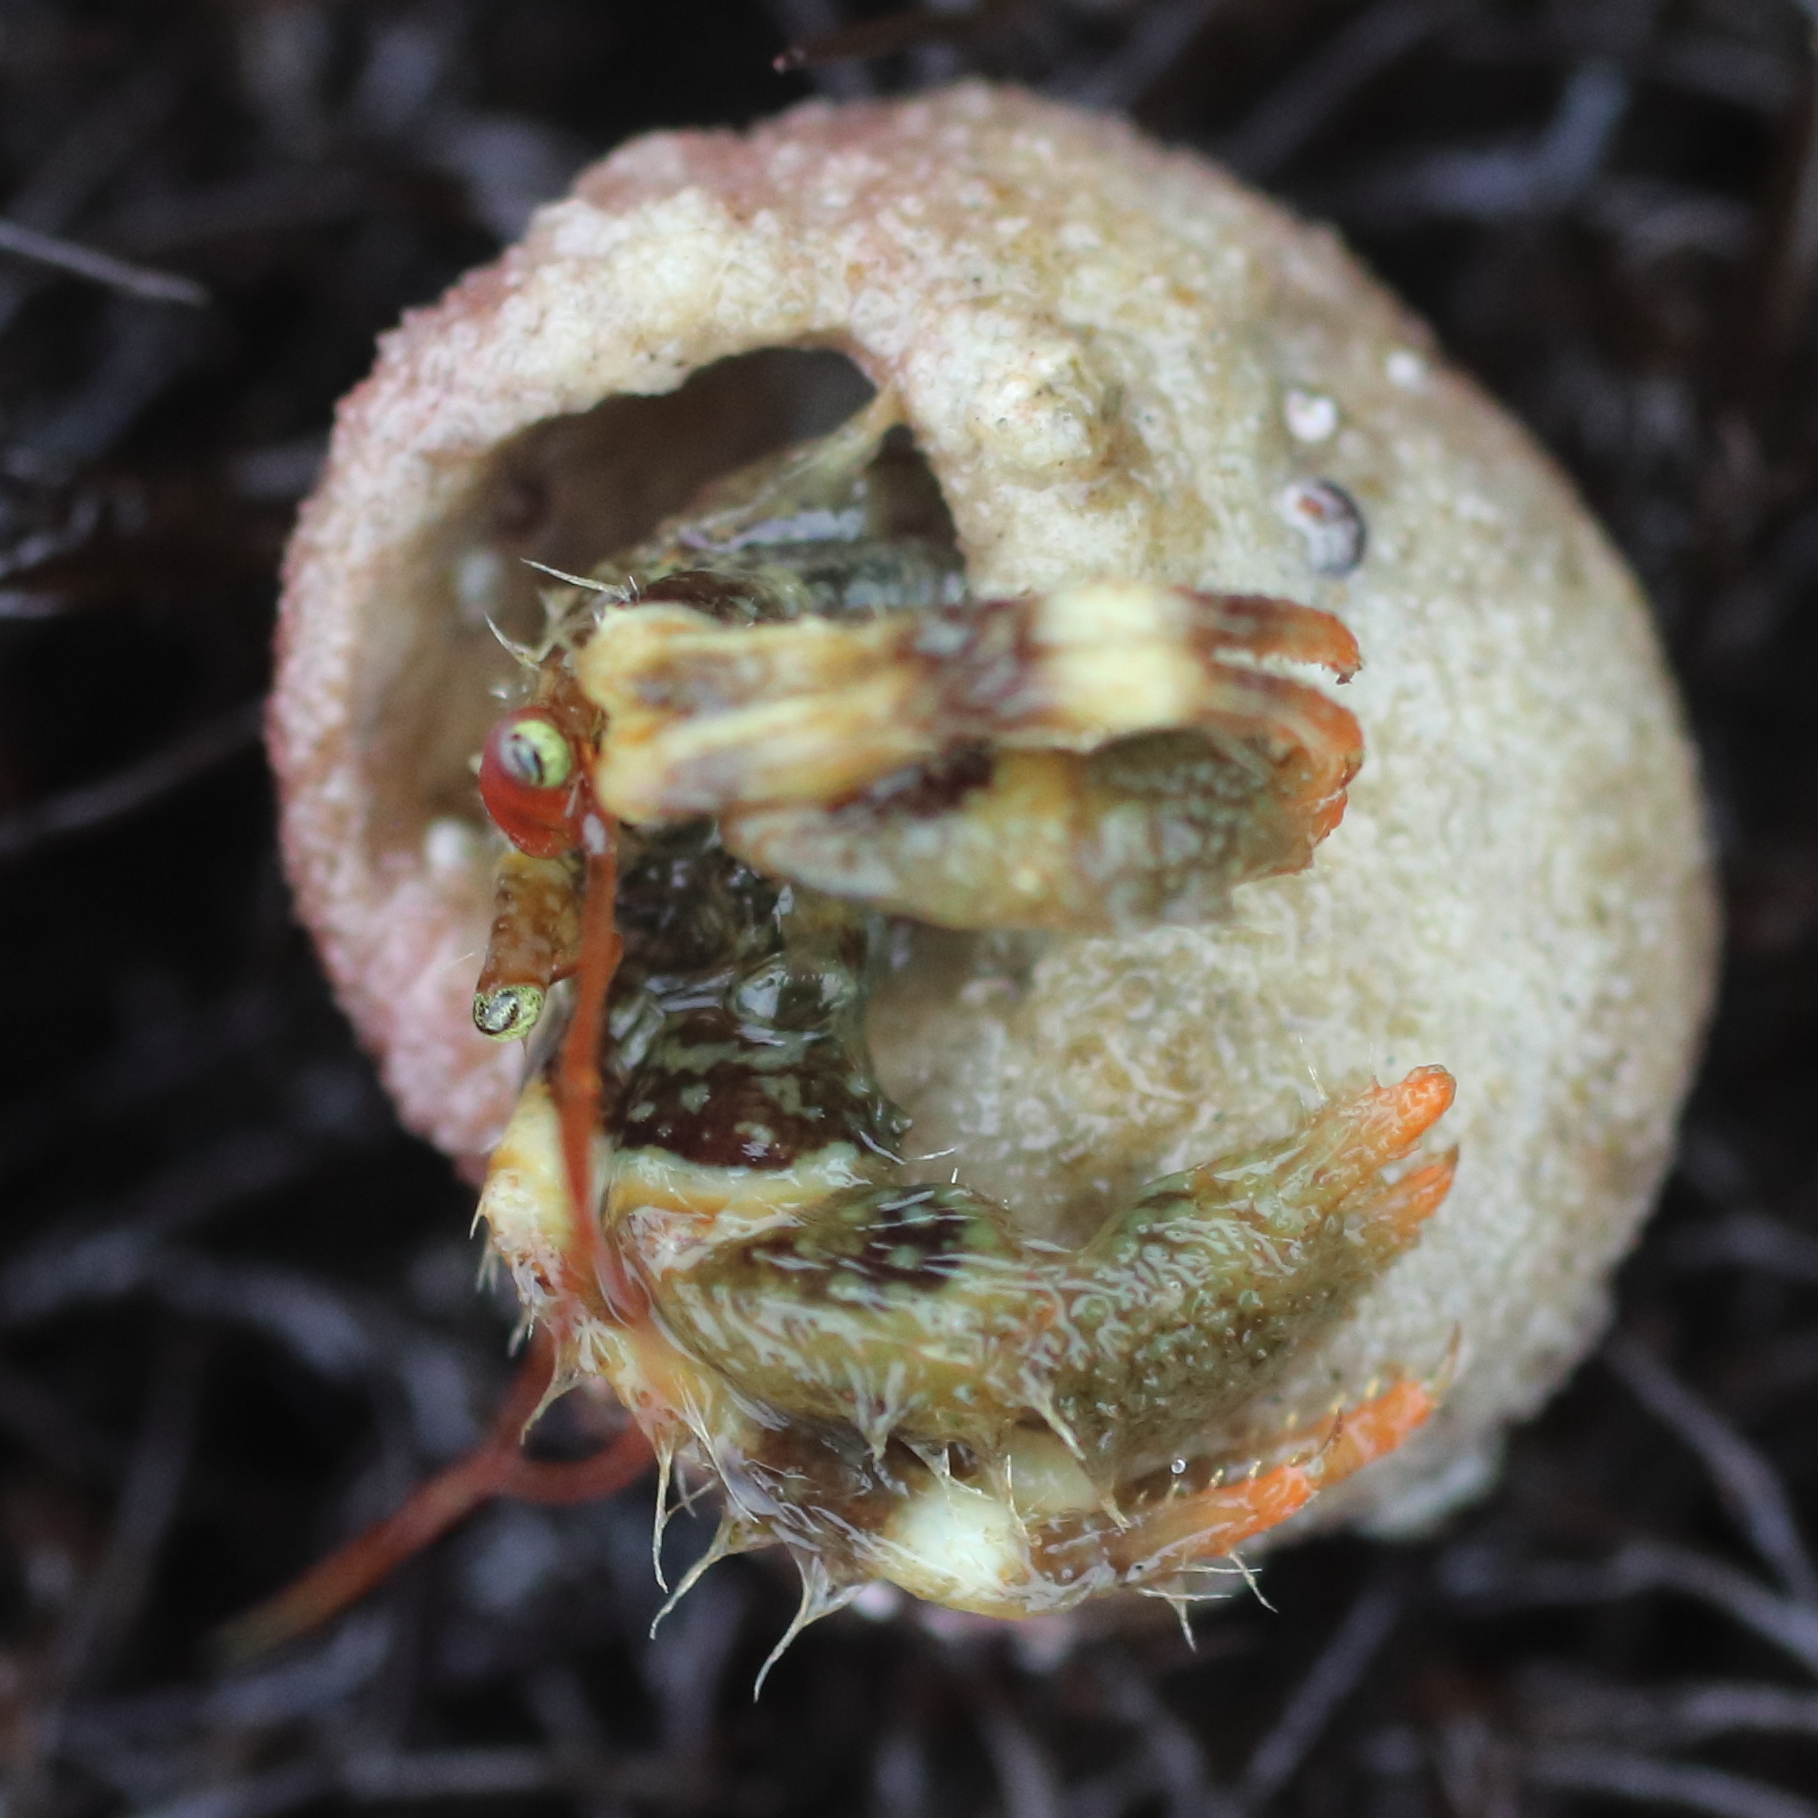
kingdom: Animalia
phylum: Arthropoda
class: Malacostraca
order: Decapoda
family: Paguridae
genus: Pagurus
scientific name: Pagurus caurinus
